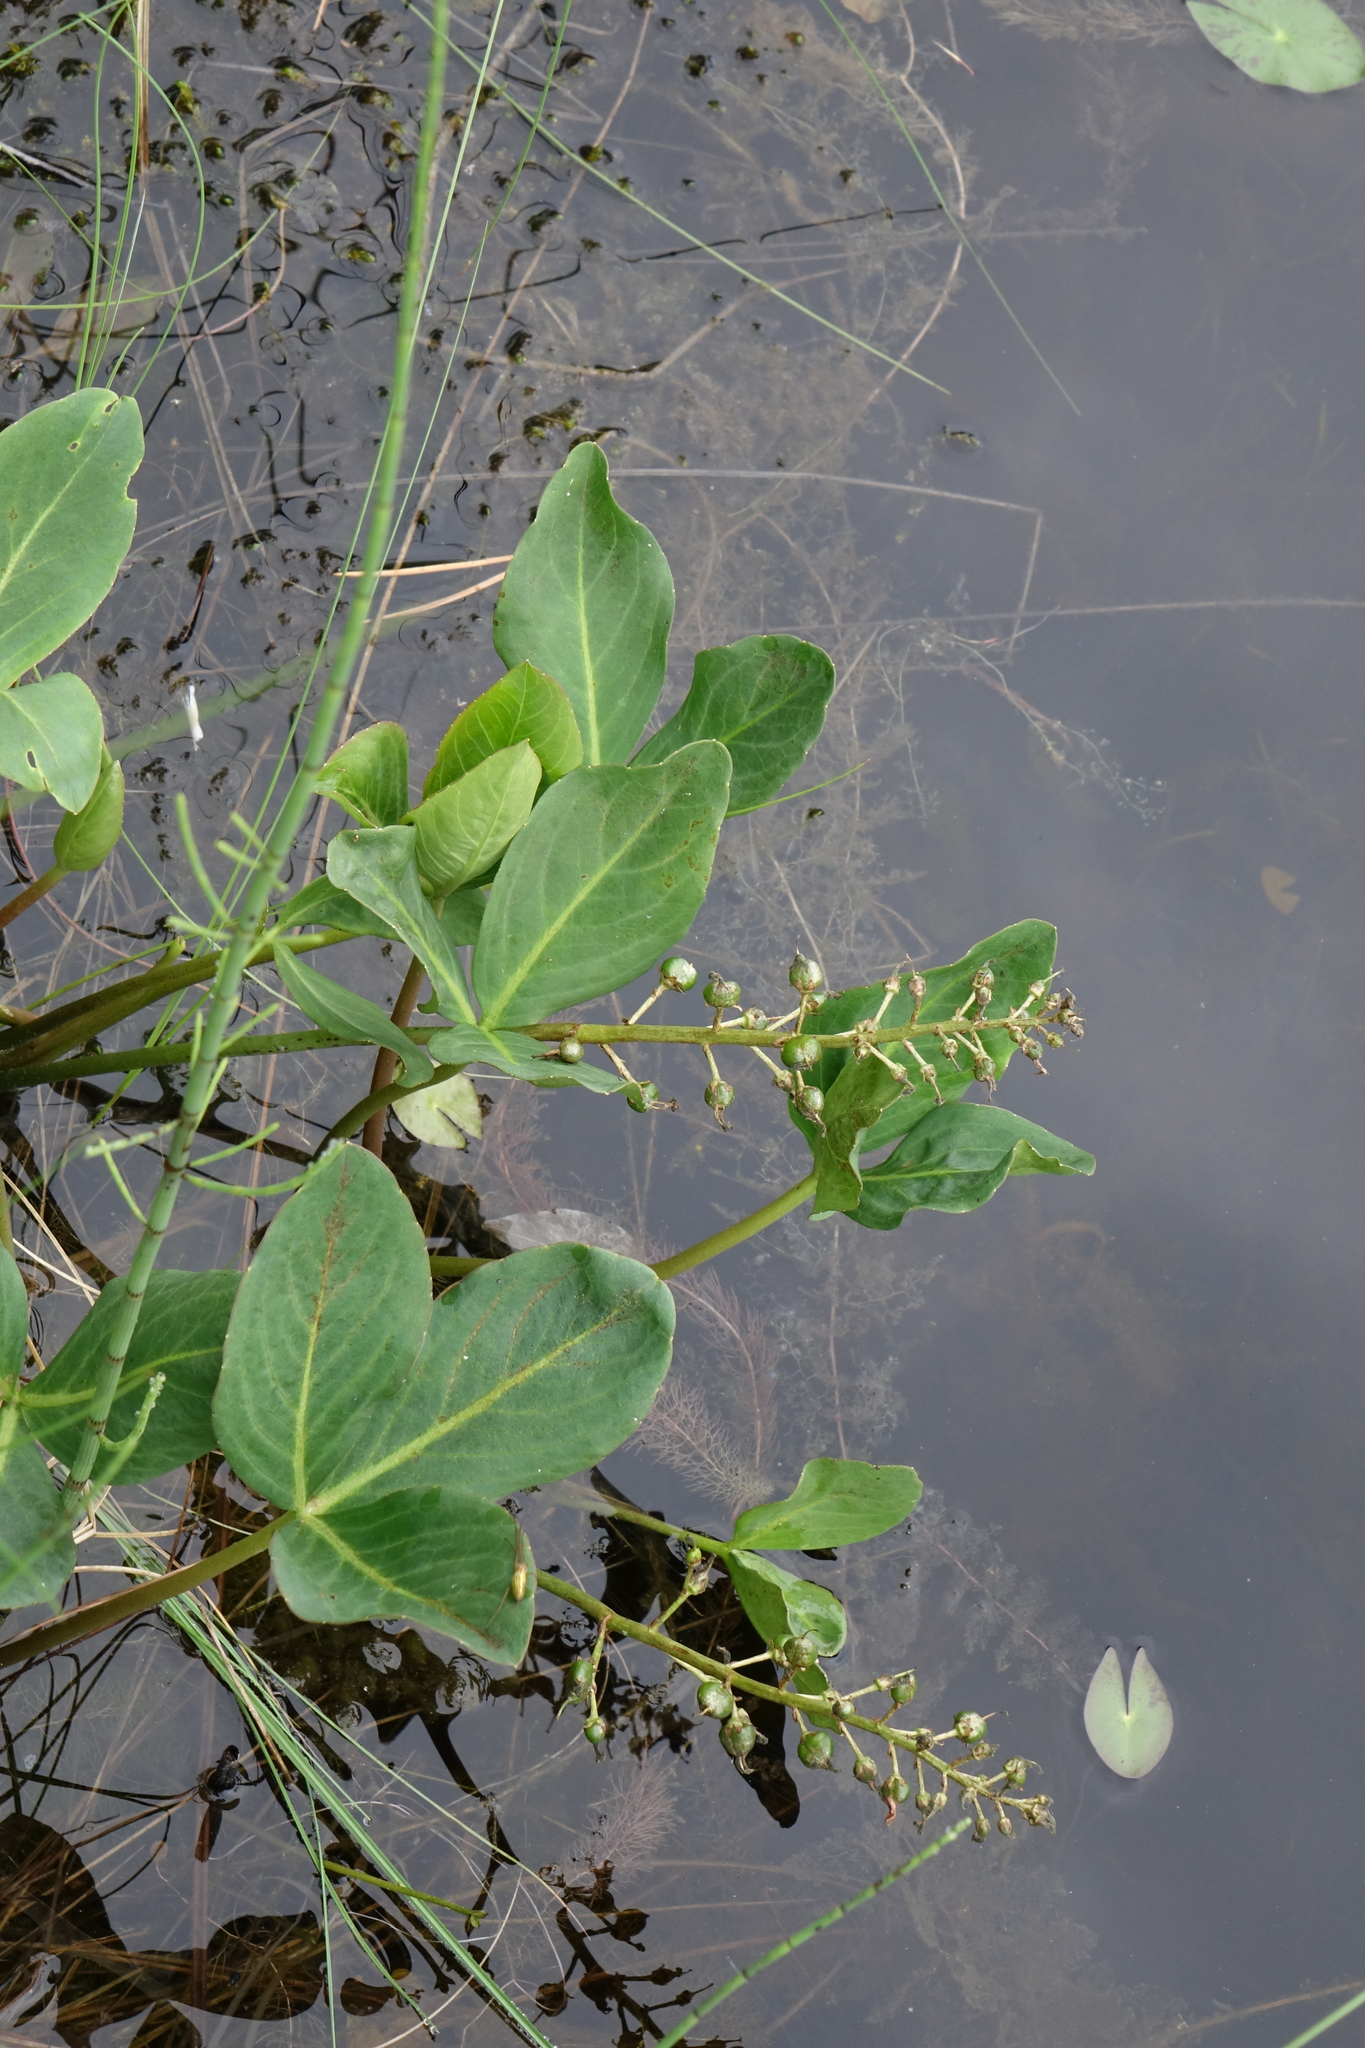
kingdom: Plantae
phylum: Tracheophyta
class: Magnoliopsida
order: Asterales
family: Menyanthaceae
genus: Menyanthes
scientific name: Menyanthes trifoliata
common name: Bogbean
